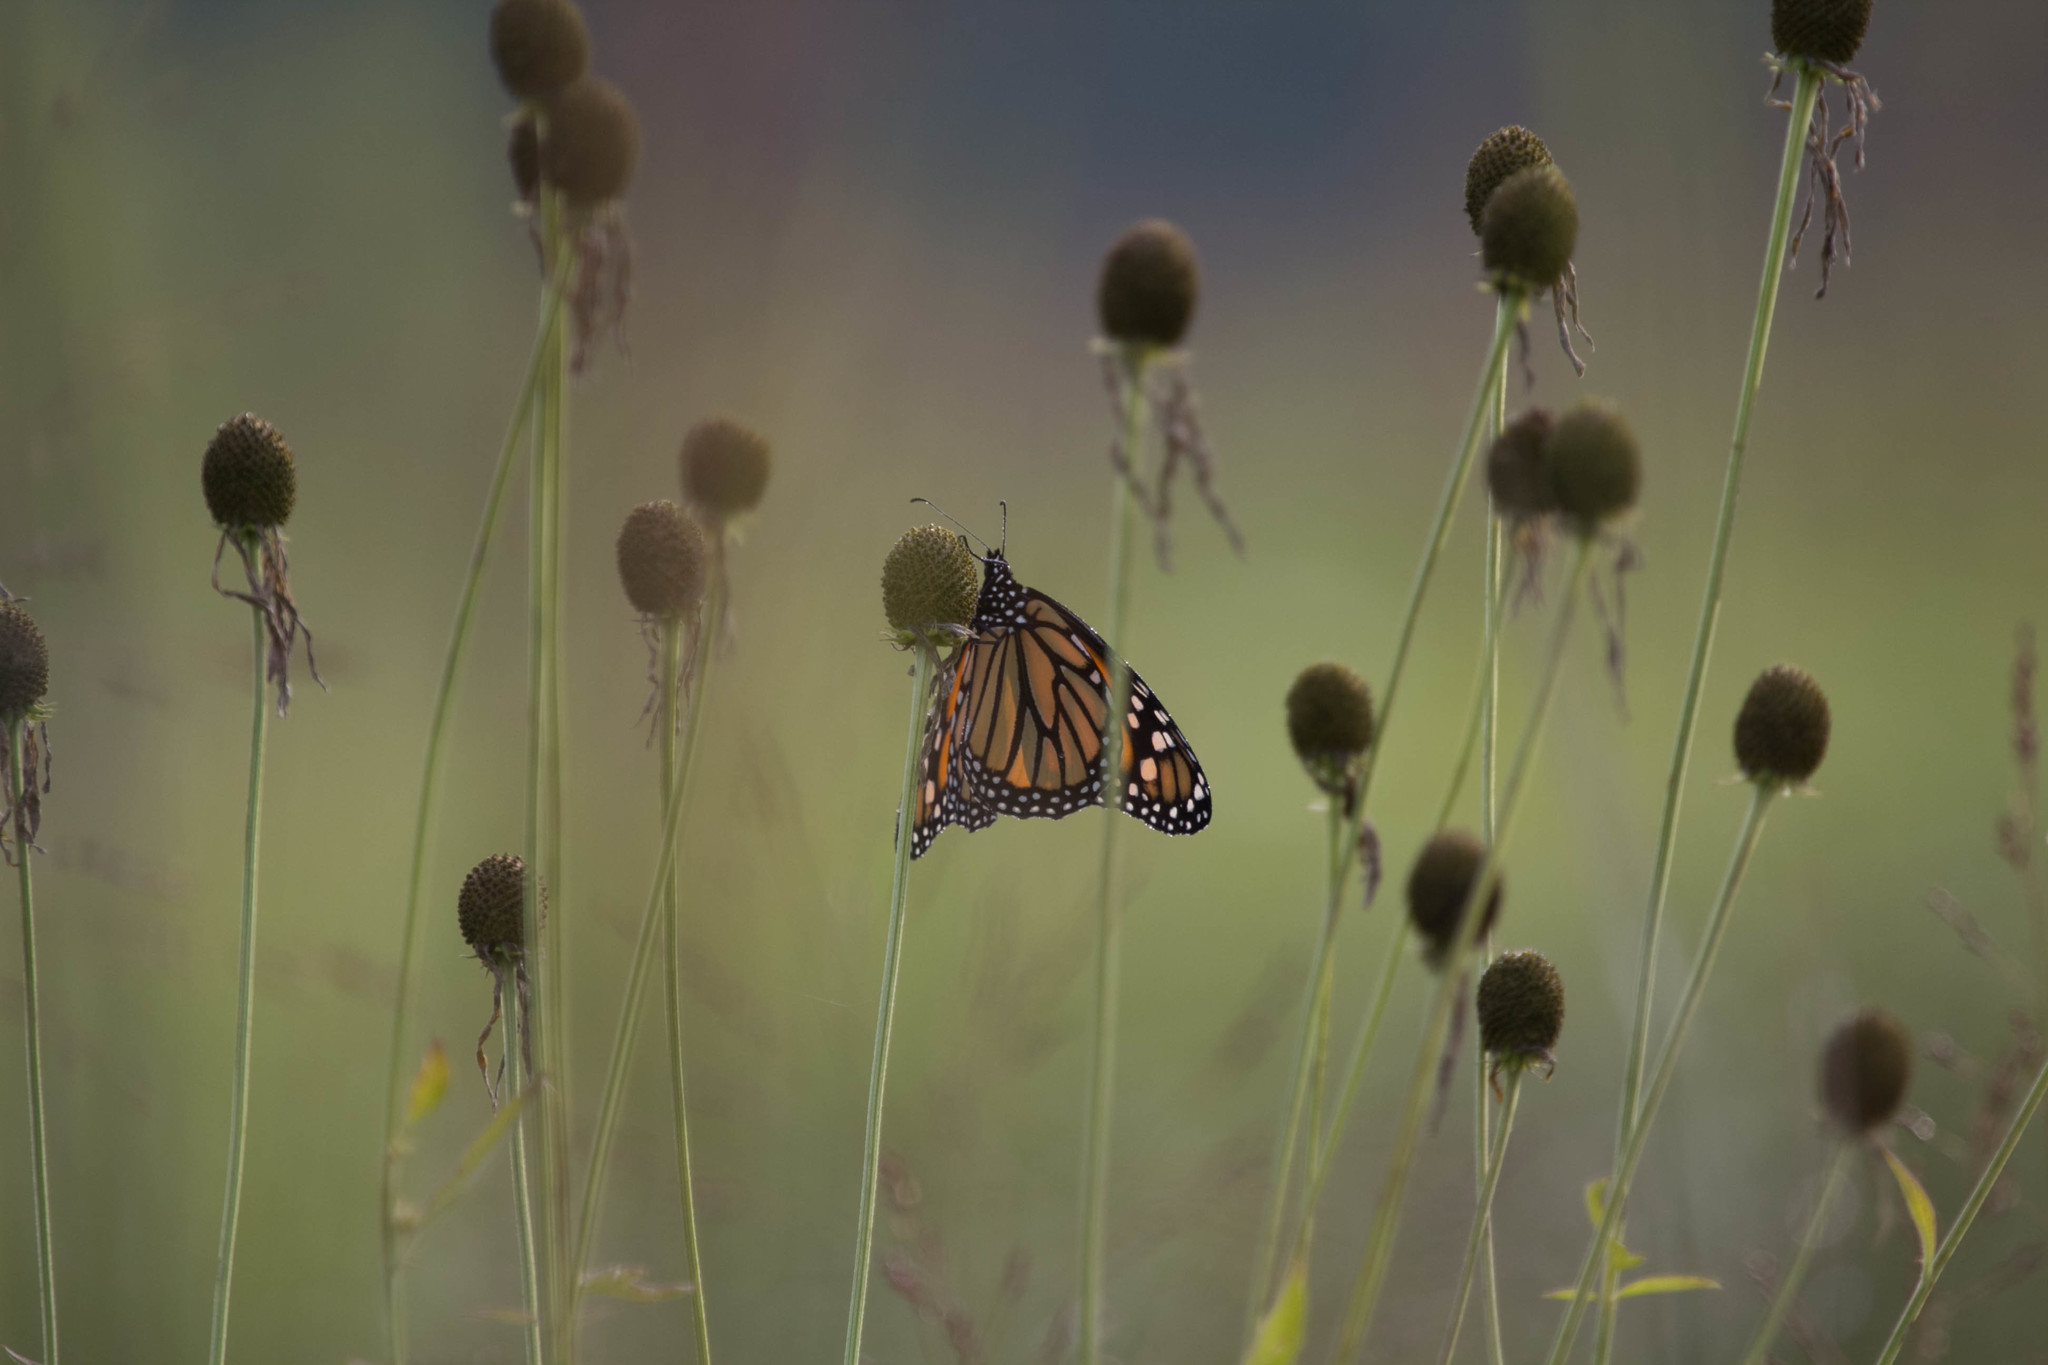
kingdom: Animalia
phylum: Arthropoda
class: Insecta
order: Lepidoptera
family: Nymphalidae
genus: Danaus
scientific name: Danaus plexippus
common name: Monarch
